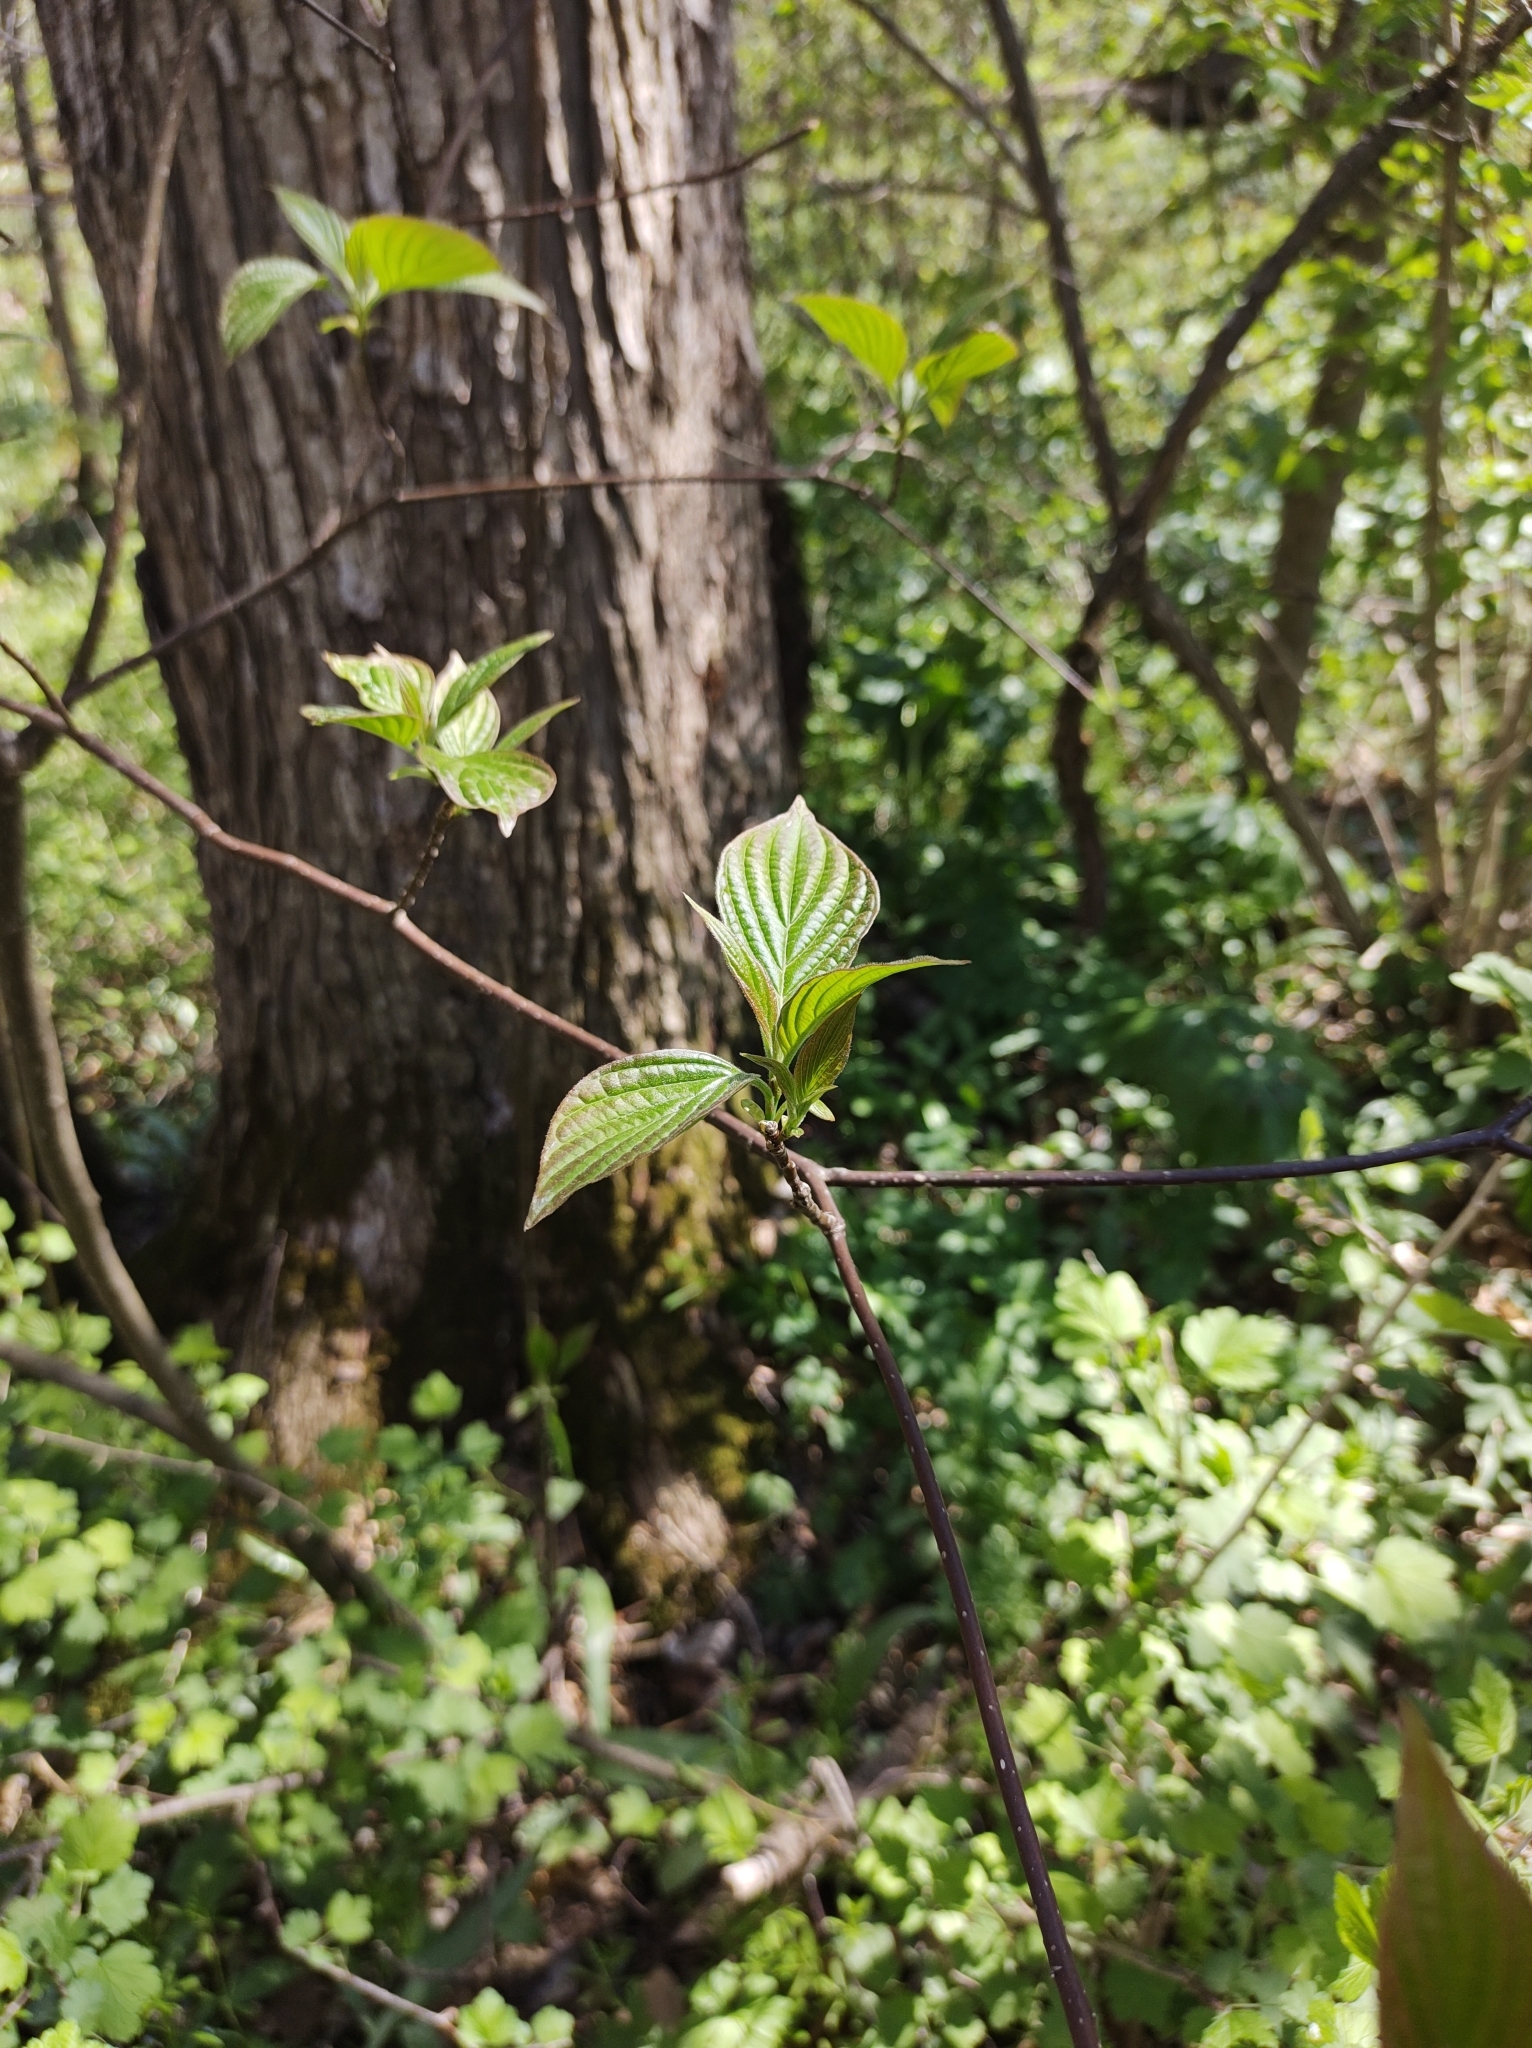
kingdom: Plantae
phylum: Tracheophyta
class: Magnoliopsida
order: Cornales
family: Cornaceae
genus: Cornus
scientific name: Cornus alternifolia
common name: Pagoda dogwood
